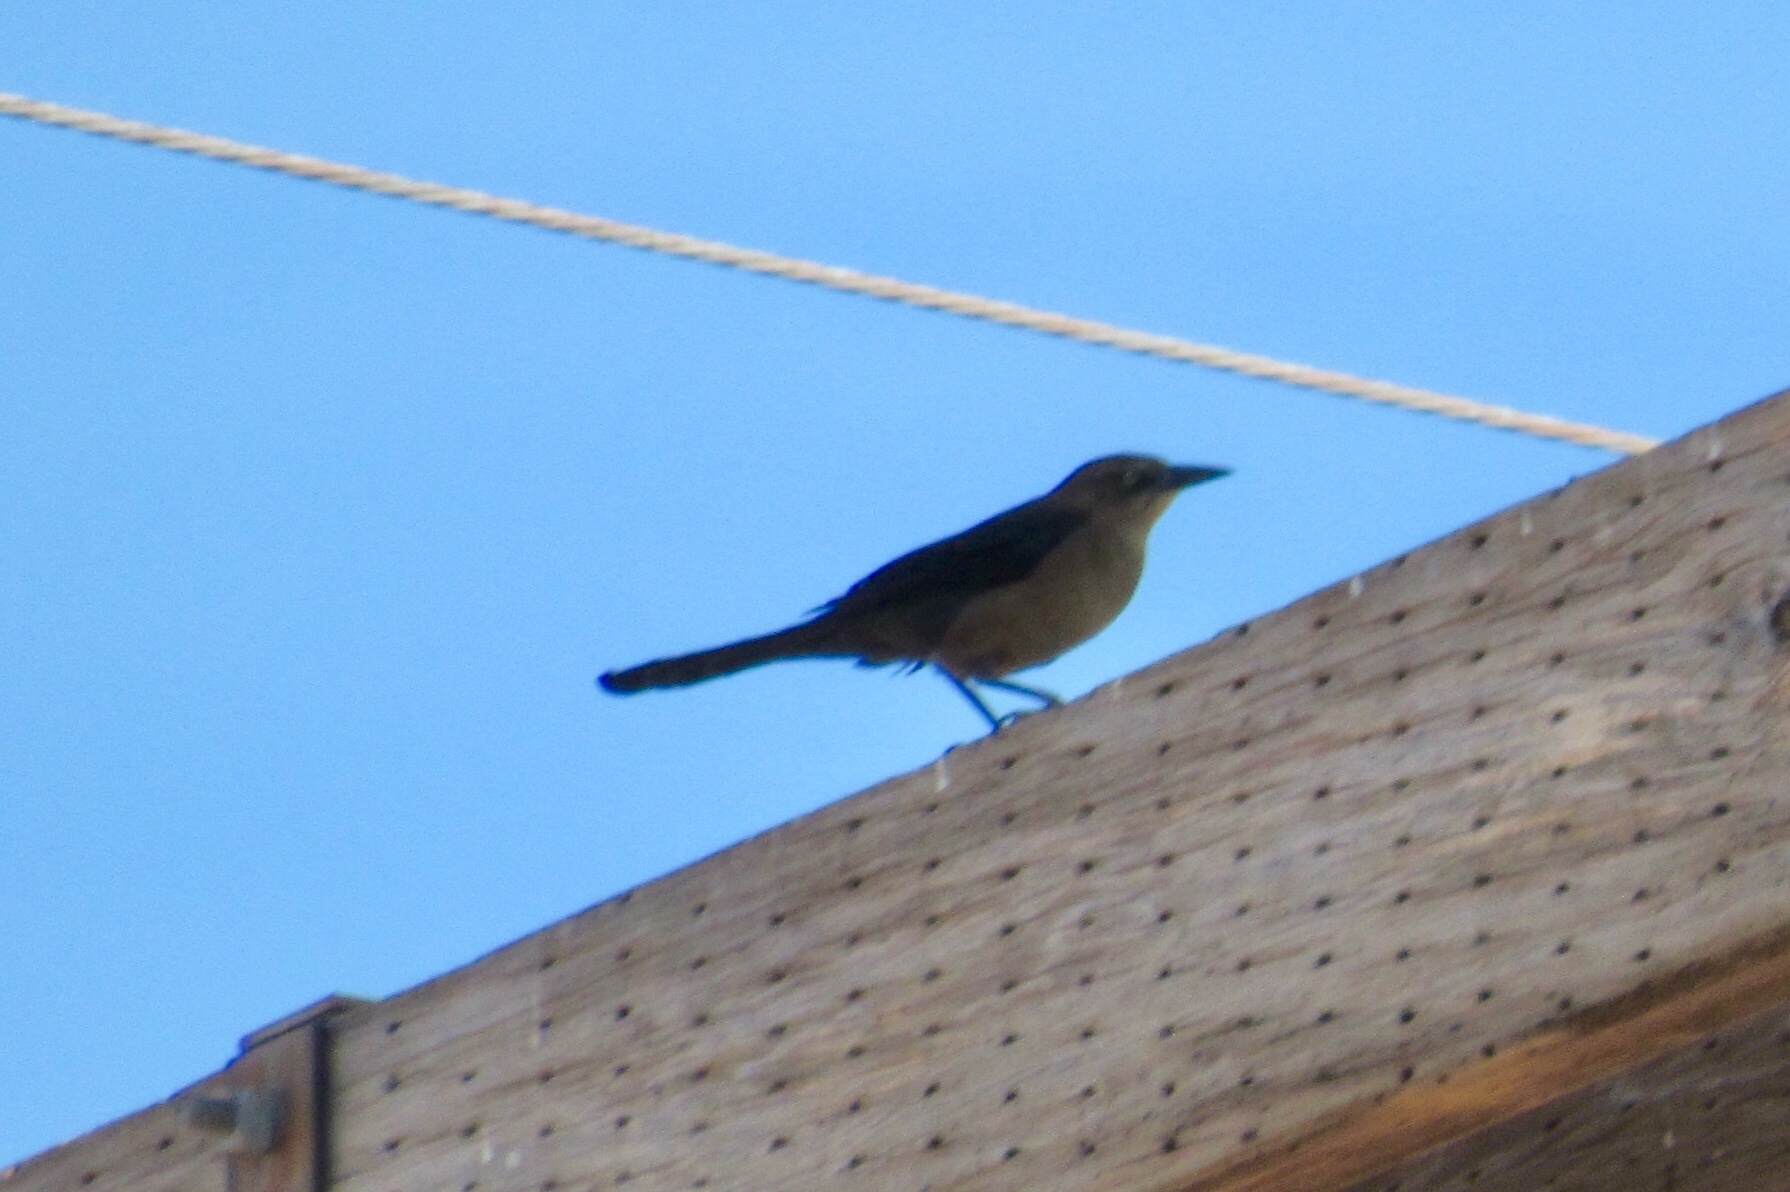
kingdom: Animalia
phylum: Chordata
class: Aves
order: Passeriformes
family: Icteridae
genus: Quiscalus
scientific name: Quiscalus mexicanus
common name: Great-tailed grackle
